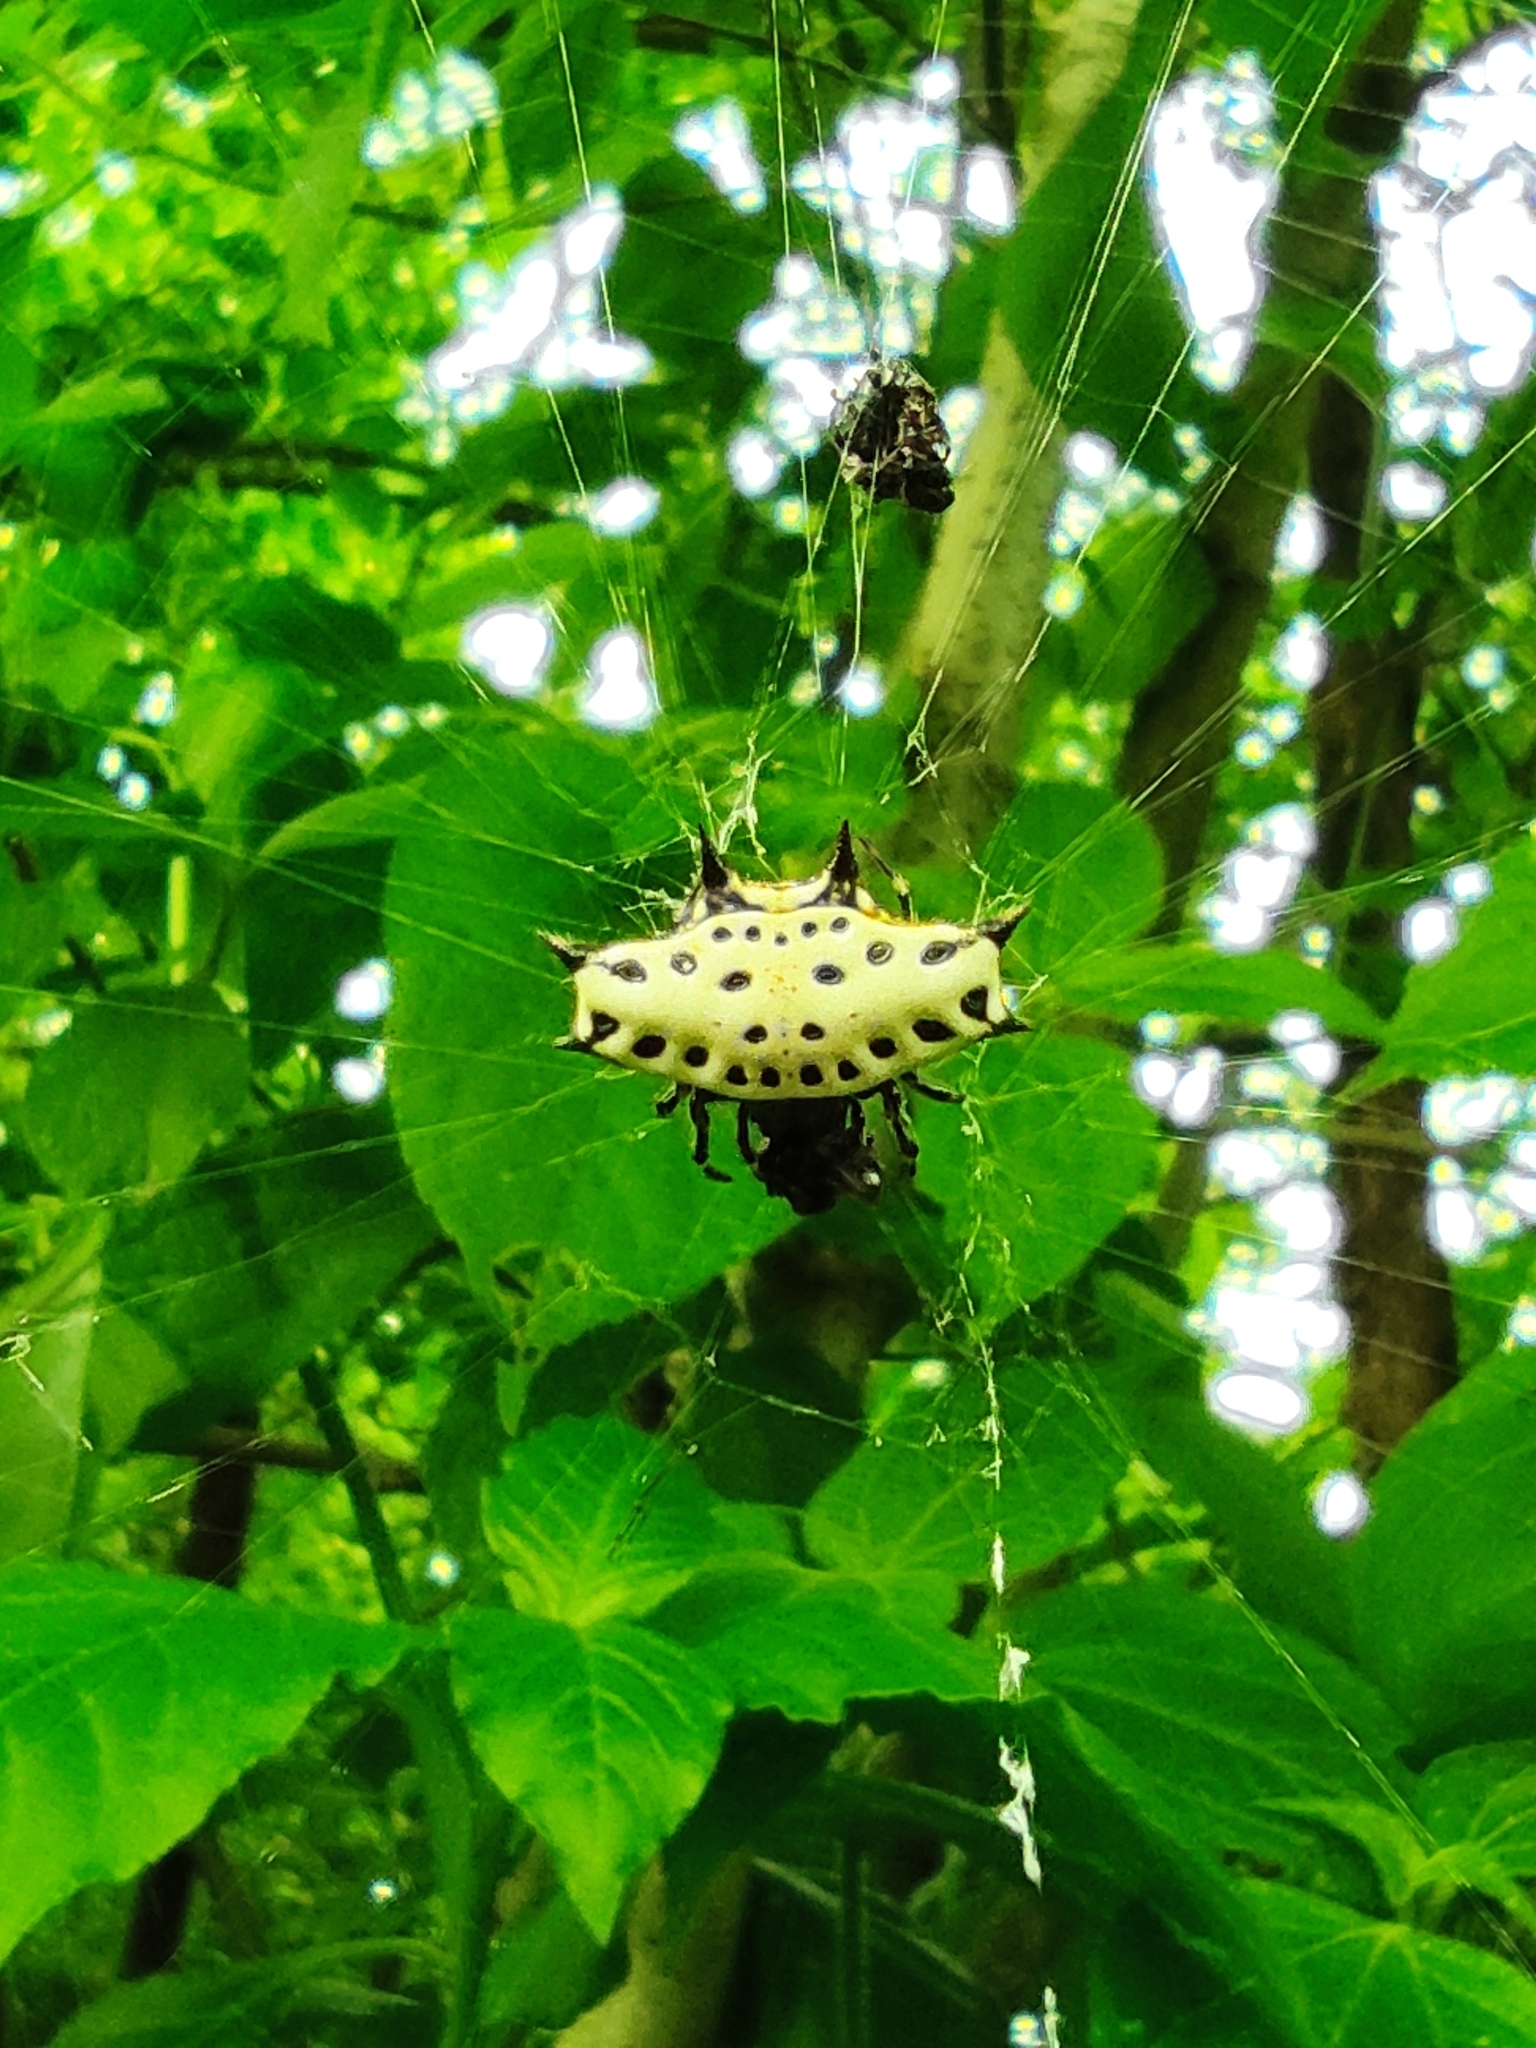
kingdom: Animalia
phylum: Arthropoda
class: Arachnida
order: Araneae
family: Araneidae
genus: Gasteracantha
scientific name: Gasteracantha cancriformis
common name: Orb weavers
